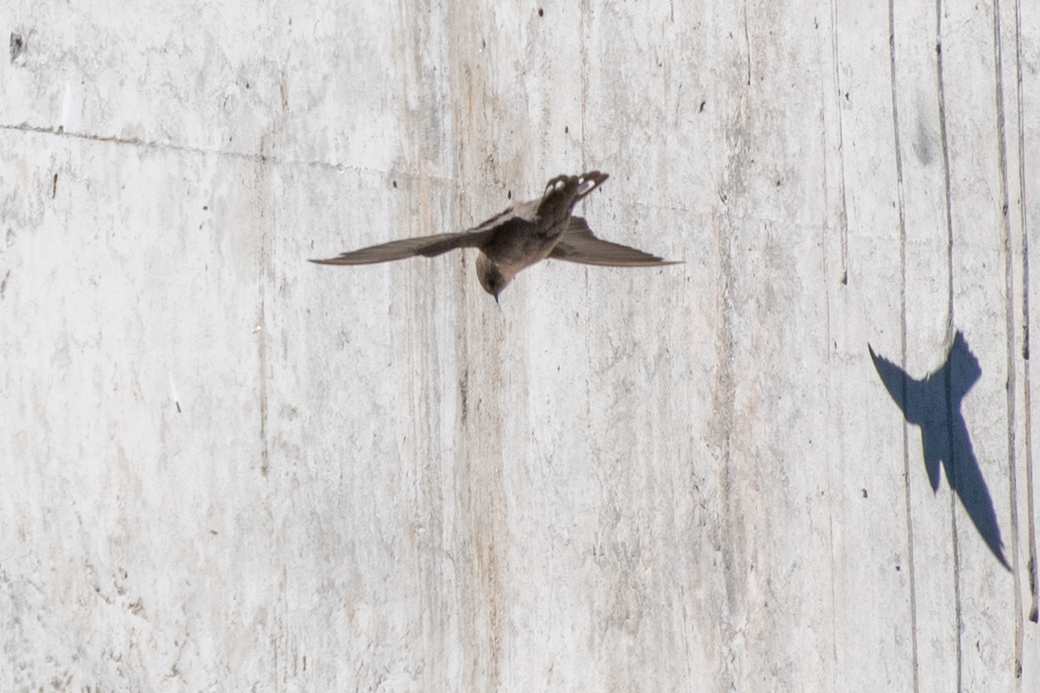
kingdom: Animalia
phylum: Chordata
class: Aves
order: Passeriformes
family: Hirundinidae
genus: Ptyonoprogne
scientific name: Ptyonoprogne rupestris
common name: Eurasian crag martin
